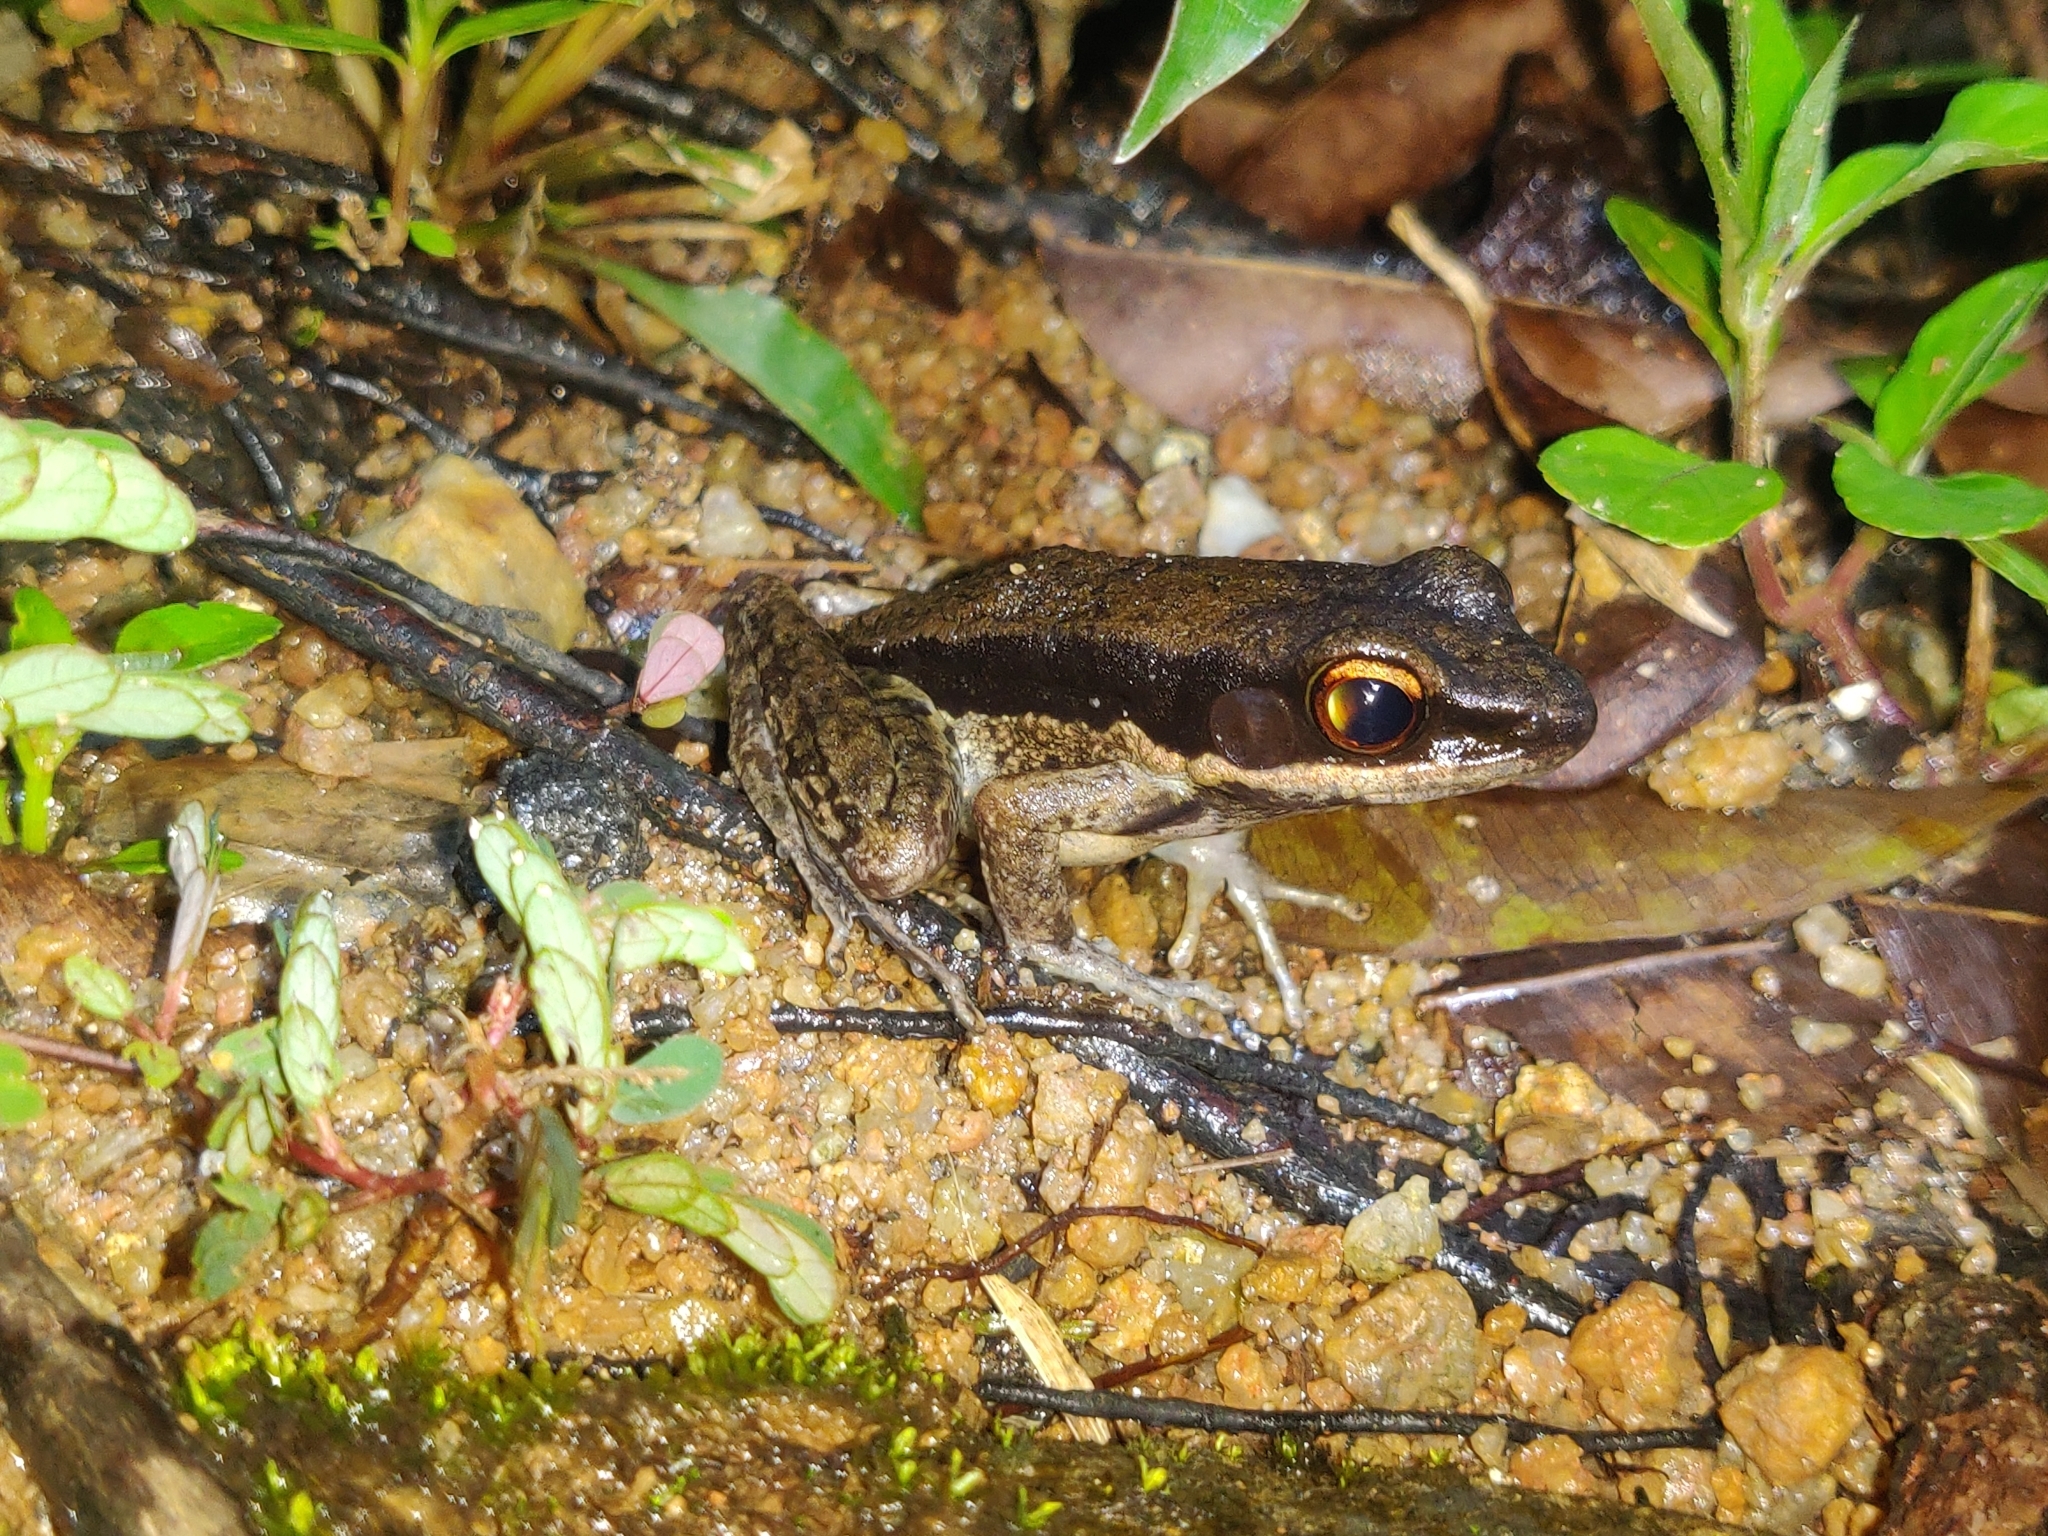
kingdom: Animalia
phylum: Chordata
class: Amphibia
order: Anura
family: Ranidae
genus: Sylvirana
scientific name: Sylvirana malayana
